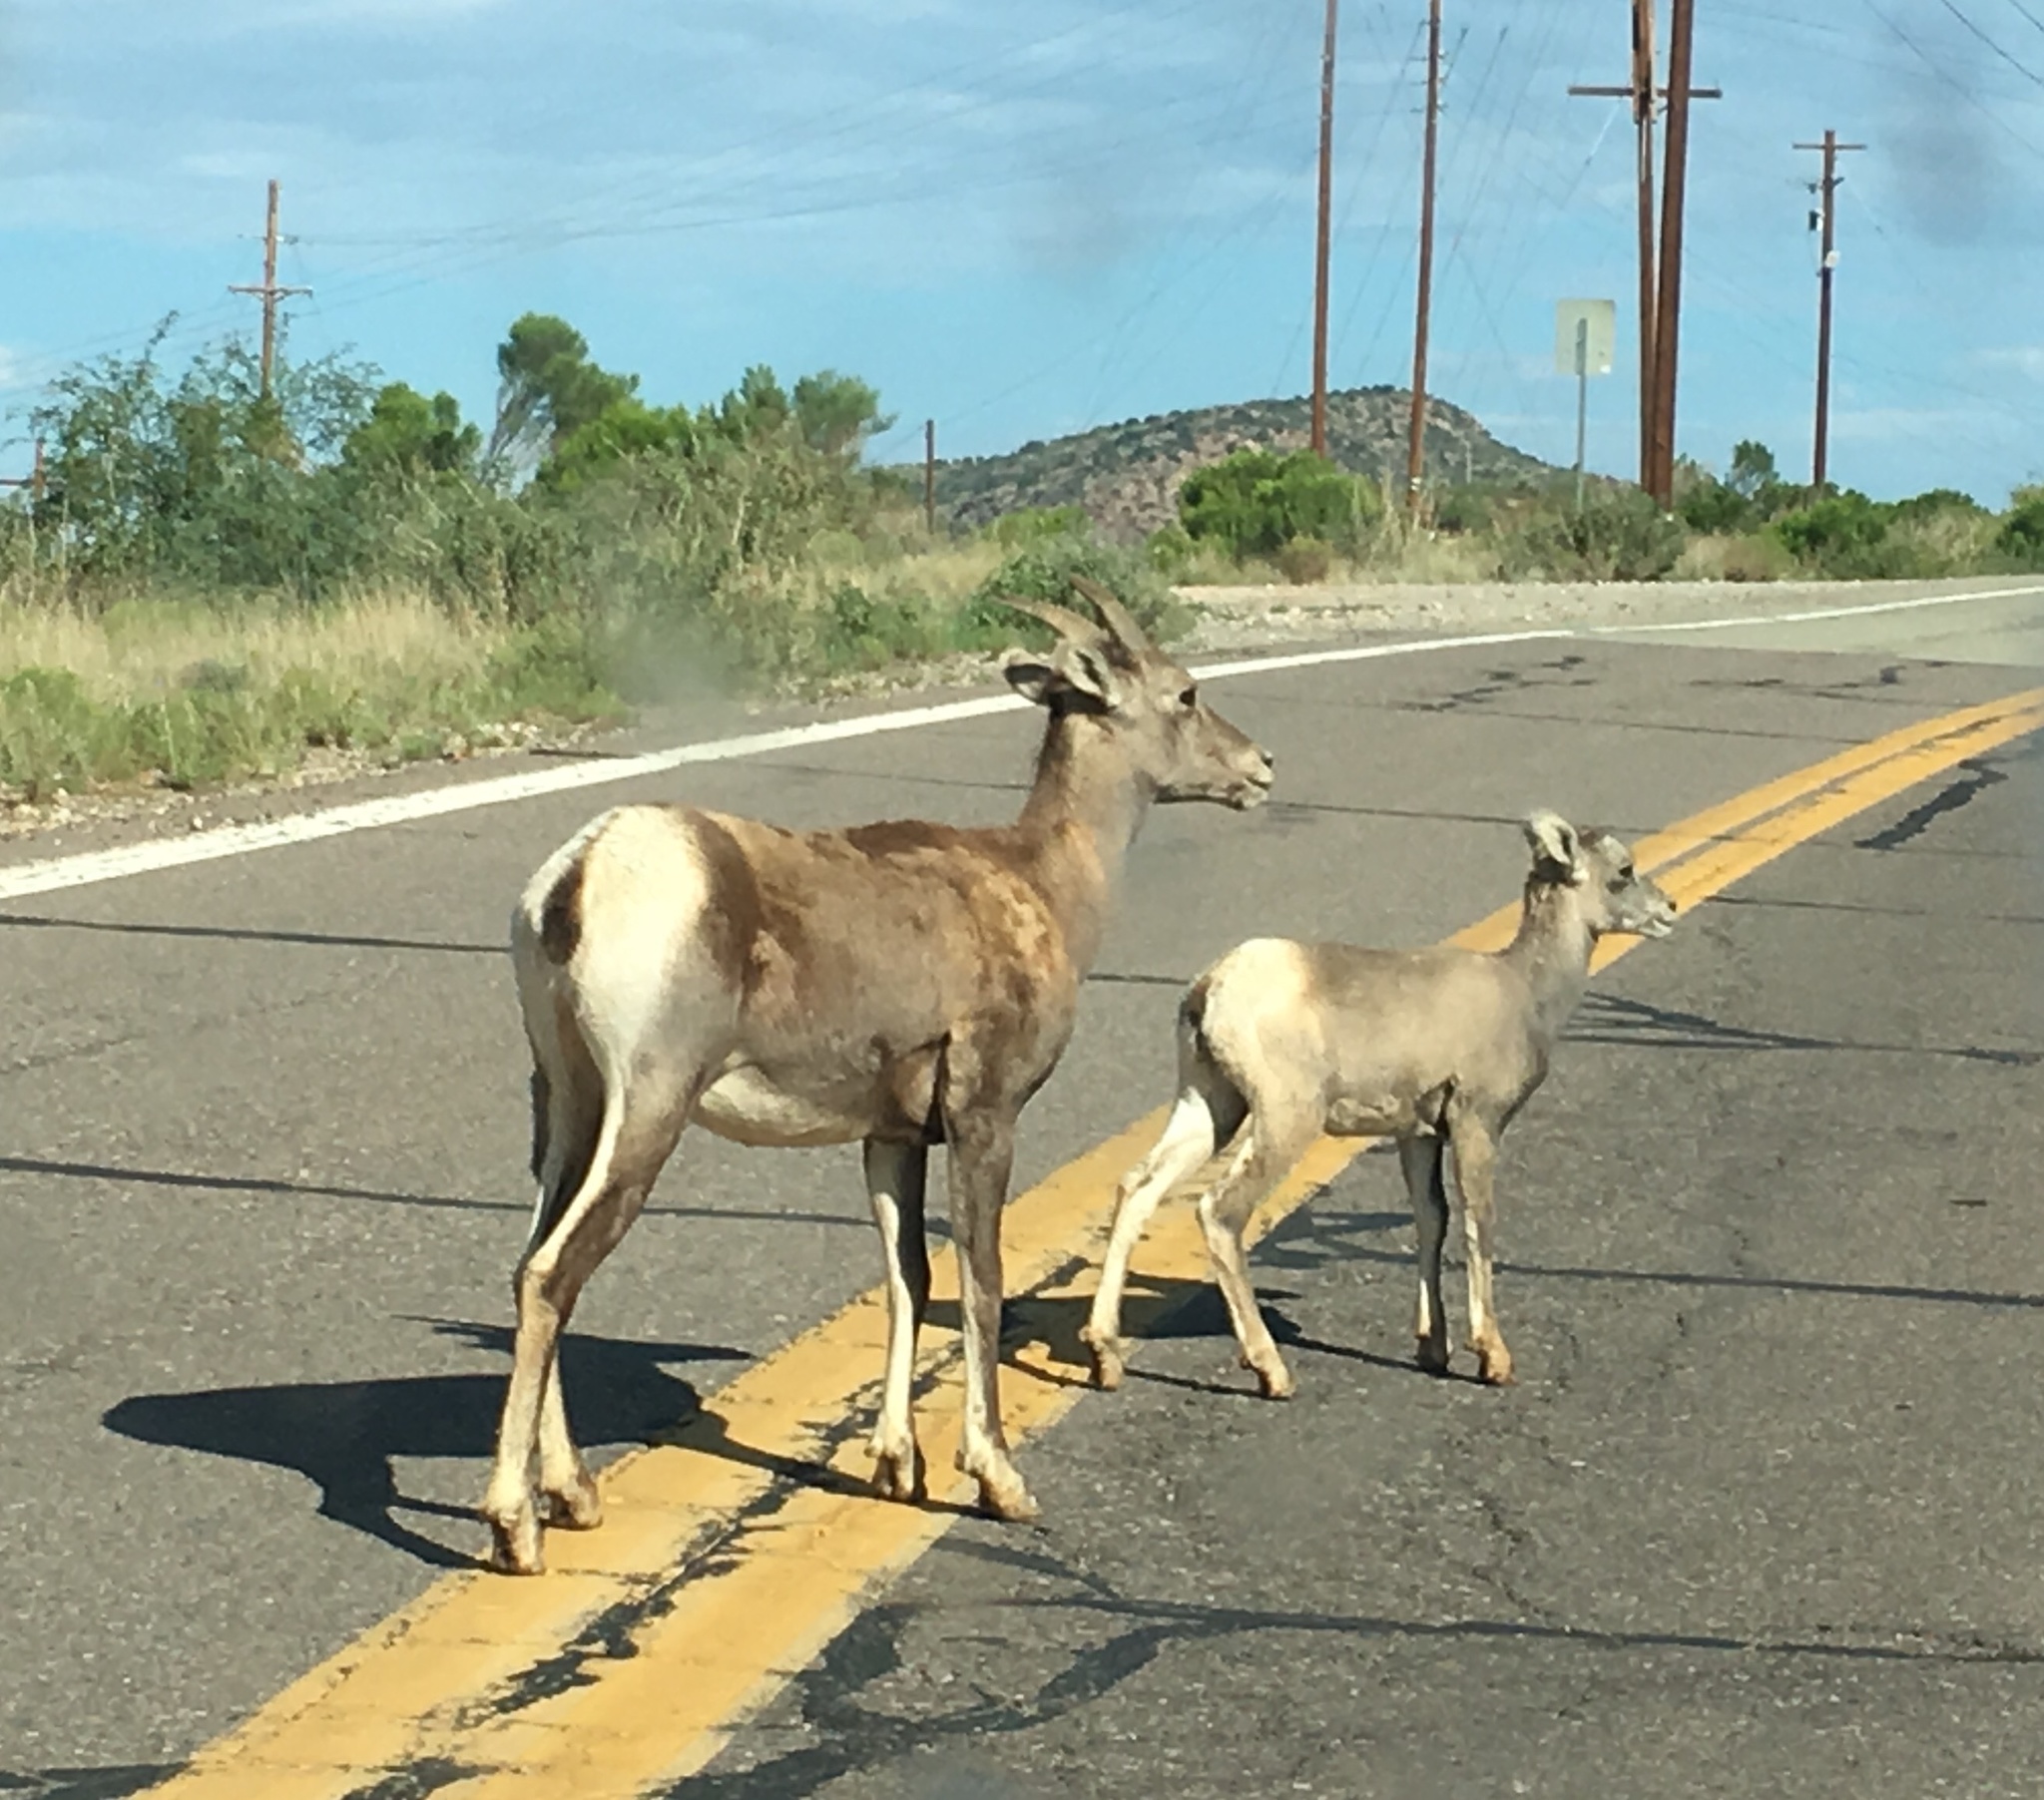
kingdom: Animalia
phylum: Chordata
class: Mammalia
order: Artiodactyla
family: Bovidae
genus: Ovis
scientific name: Ovis canadensis
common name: Bighorn sheep
